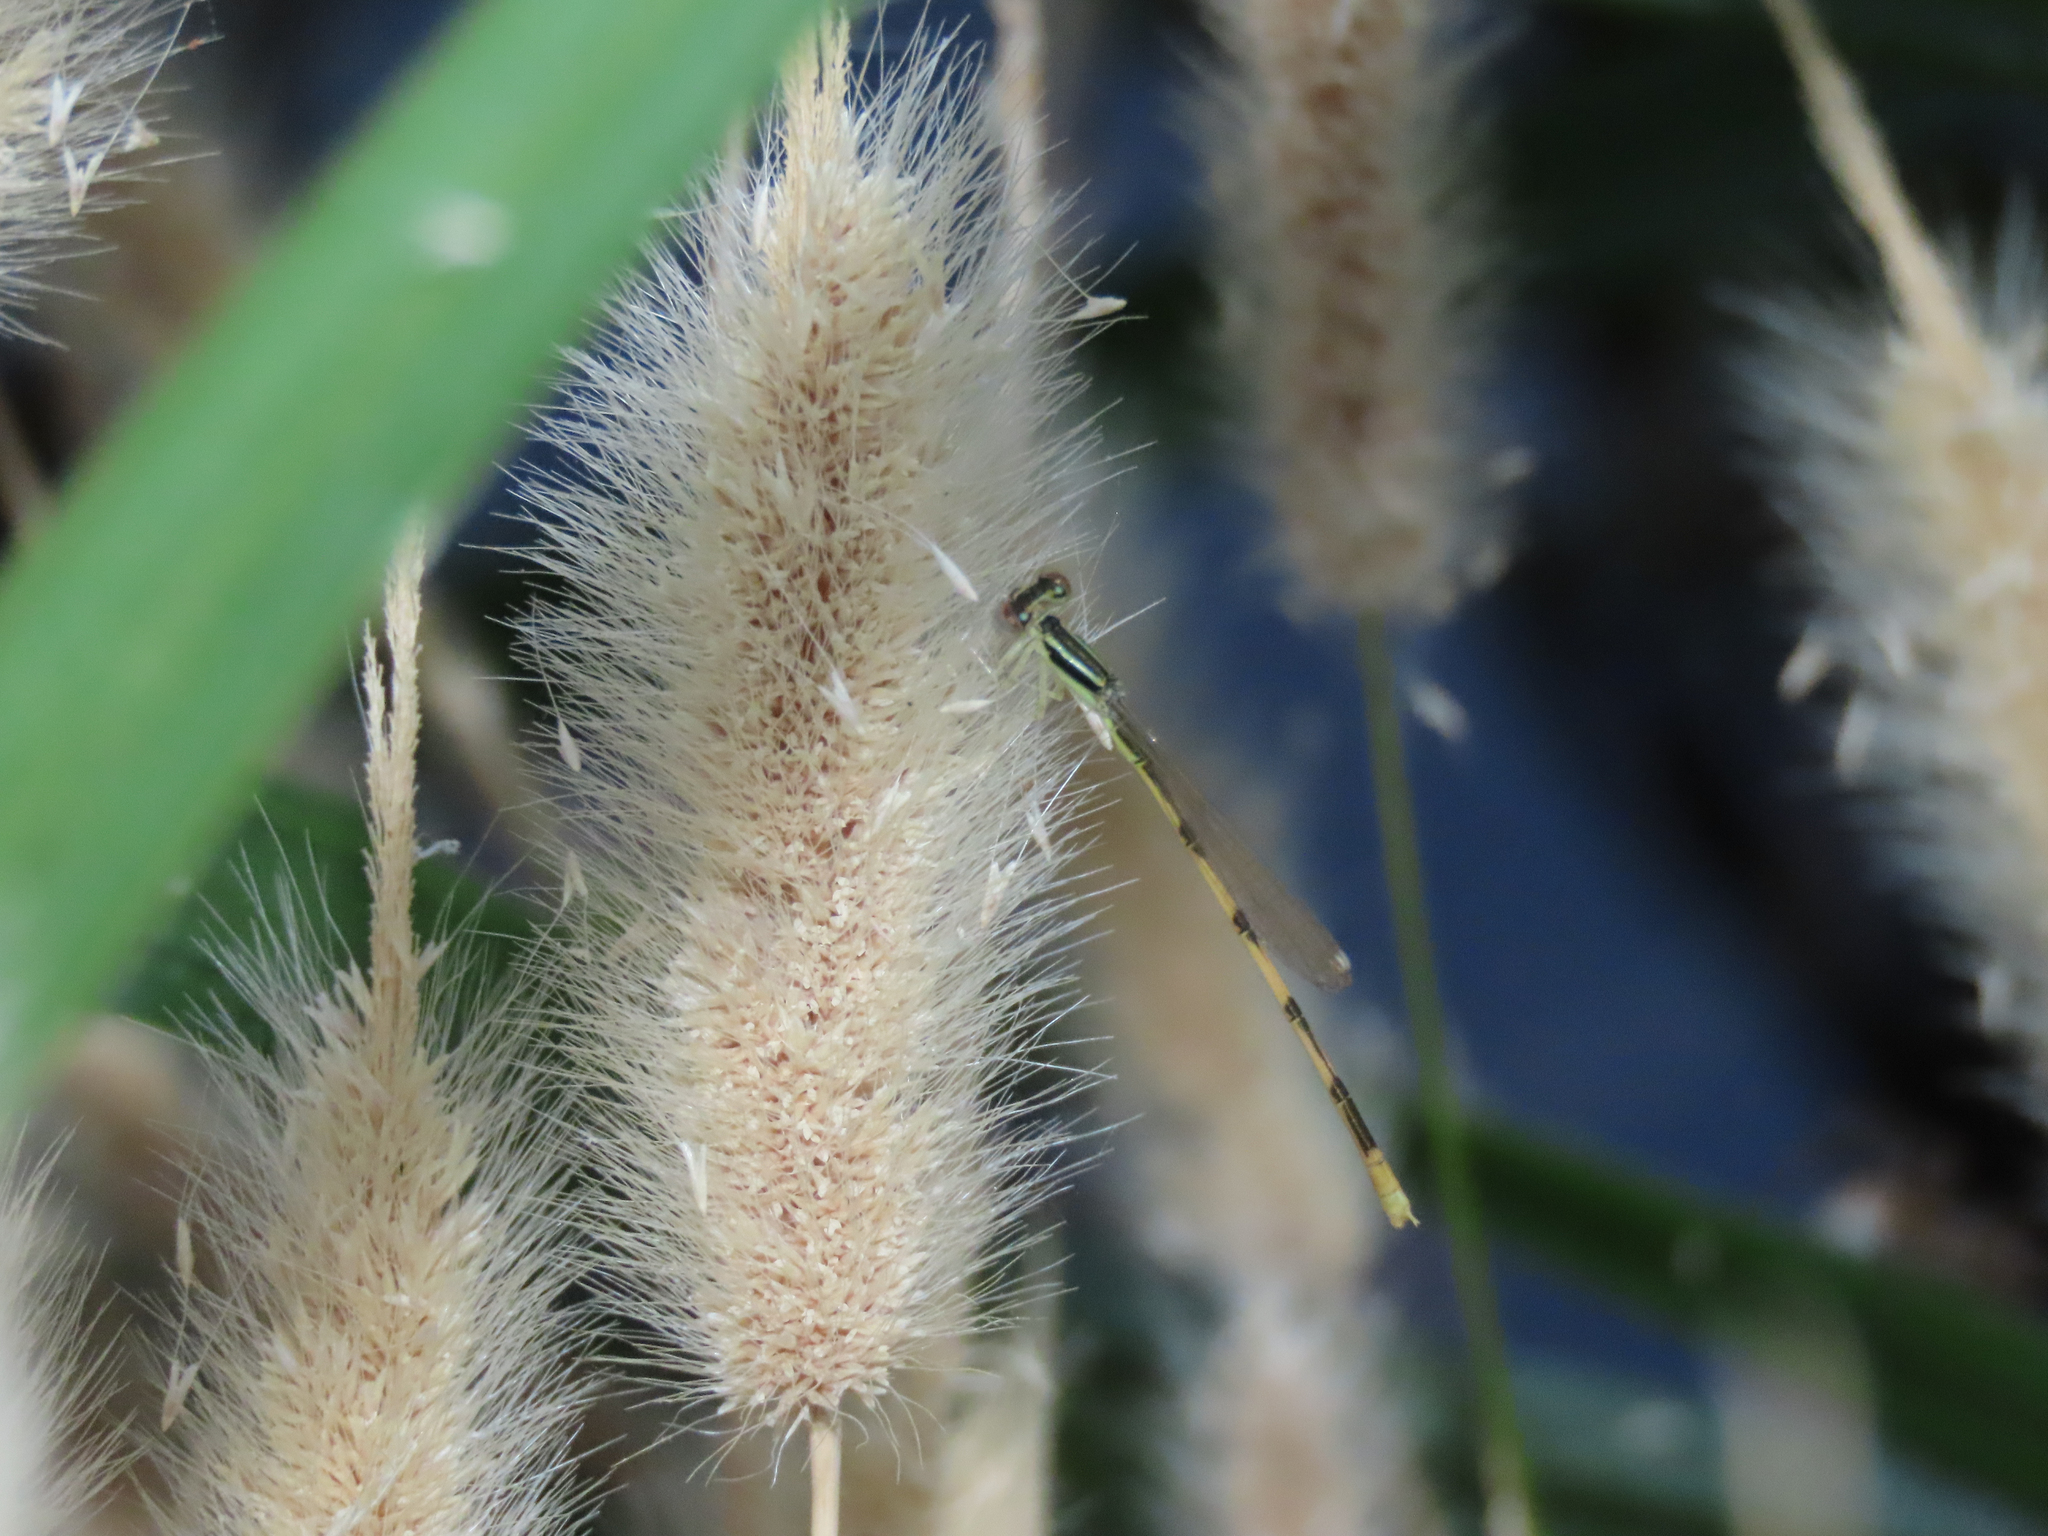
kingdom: Animalia
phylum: Arthropoda
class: Insecta
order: Odonata
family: Coenagrionidae
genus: Ischnura
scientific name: Ischnura hastata
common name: Citrine forktail
